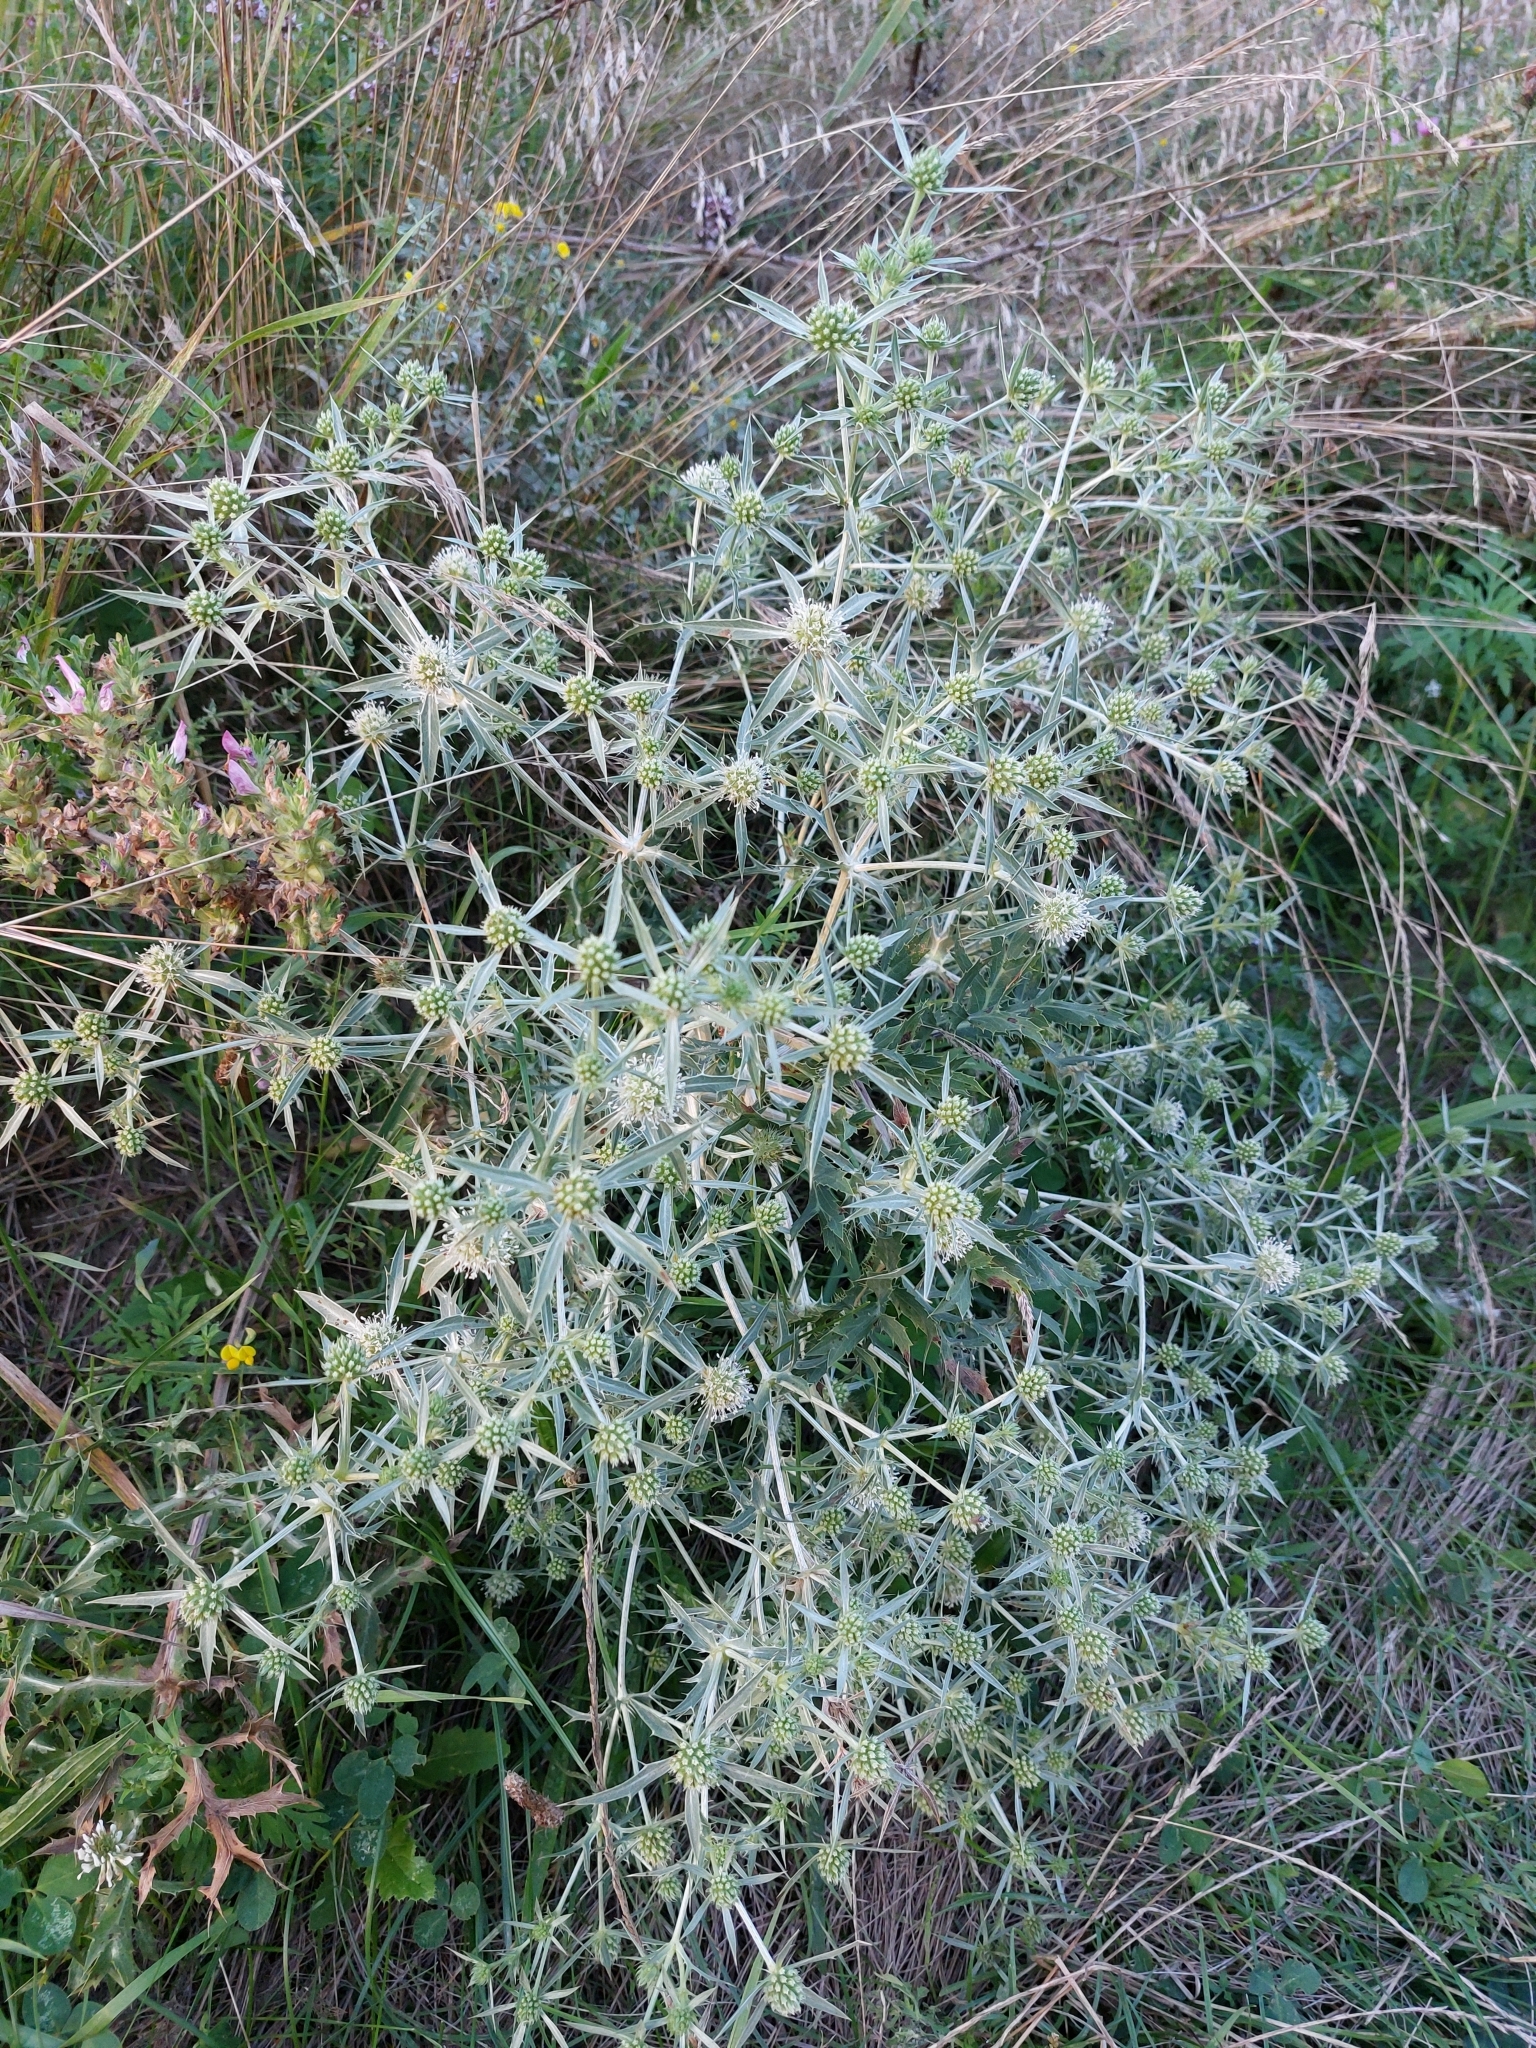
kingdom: Plantae
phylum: Tracheophyta
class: Magnoliopsida
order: Apiales
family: Apiaceae
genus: Eryngium
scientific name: Eryngium campestre
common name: Field eryngo
